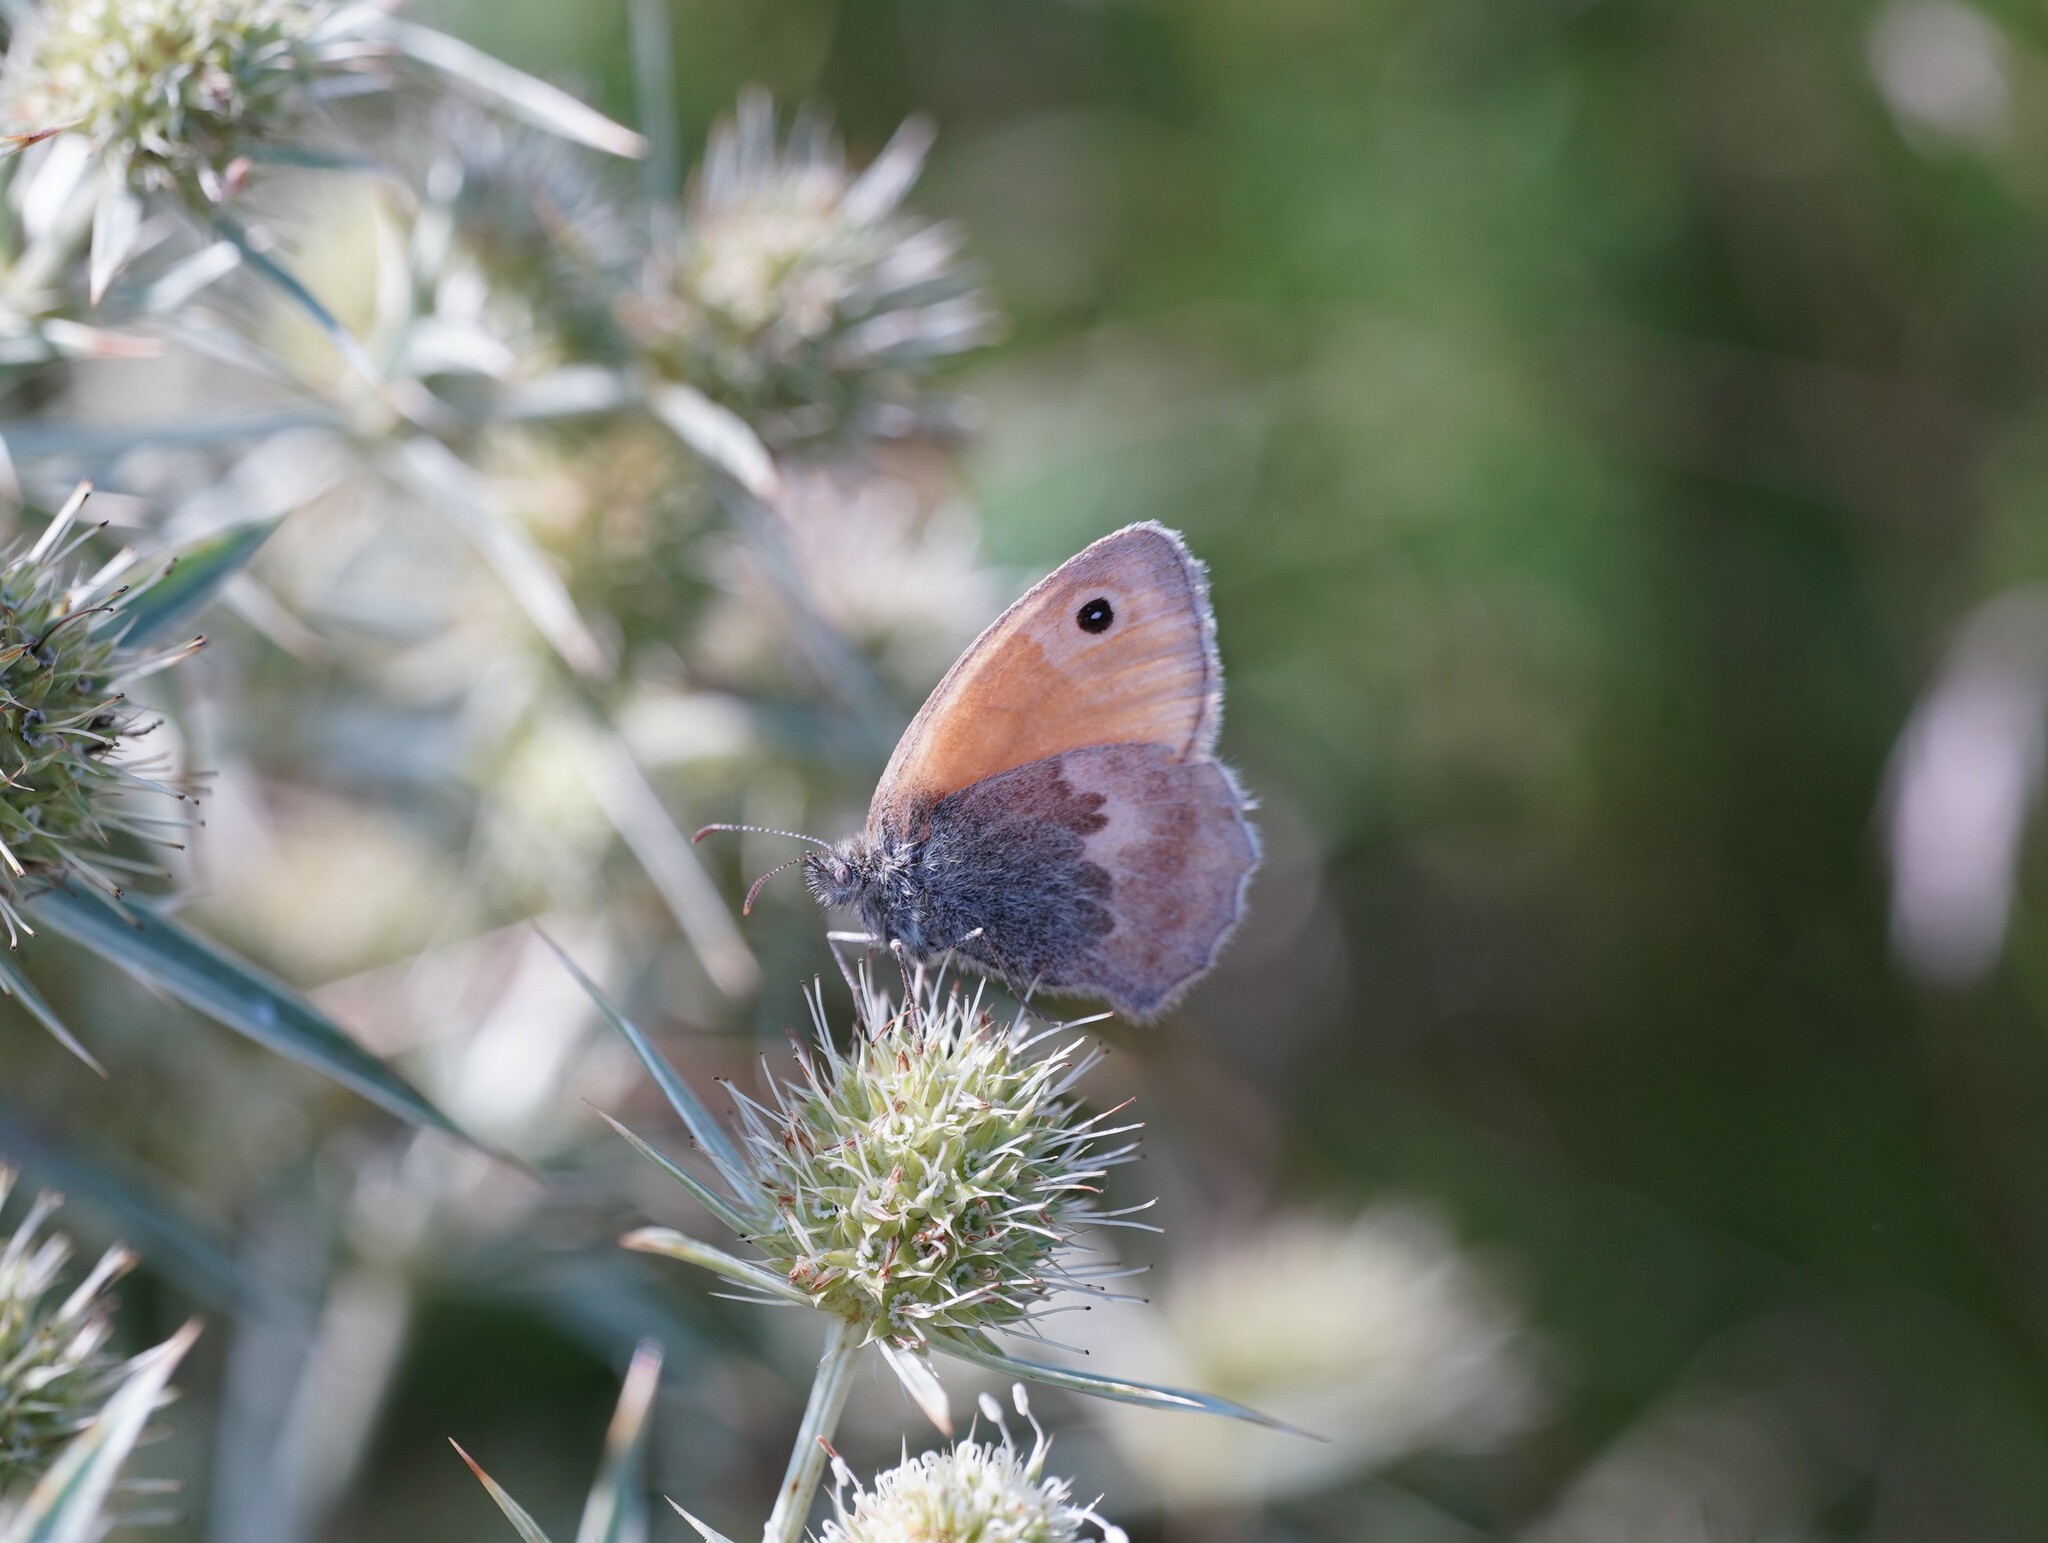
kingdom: Animalia
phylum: Arthropoda
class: Insecta
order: Lepidoptera
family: Nymphalidae
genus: Coenonympha
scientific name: Coenonympha pamphilus
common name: Small heath
